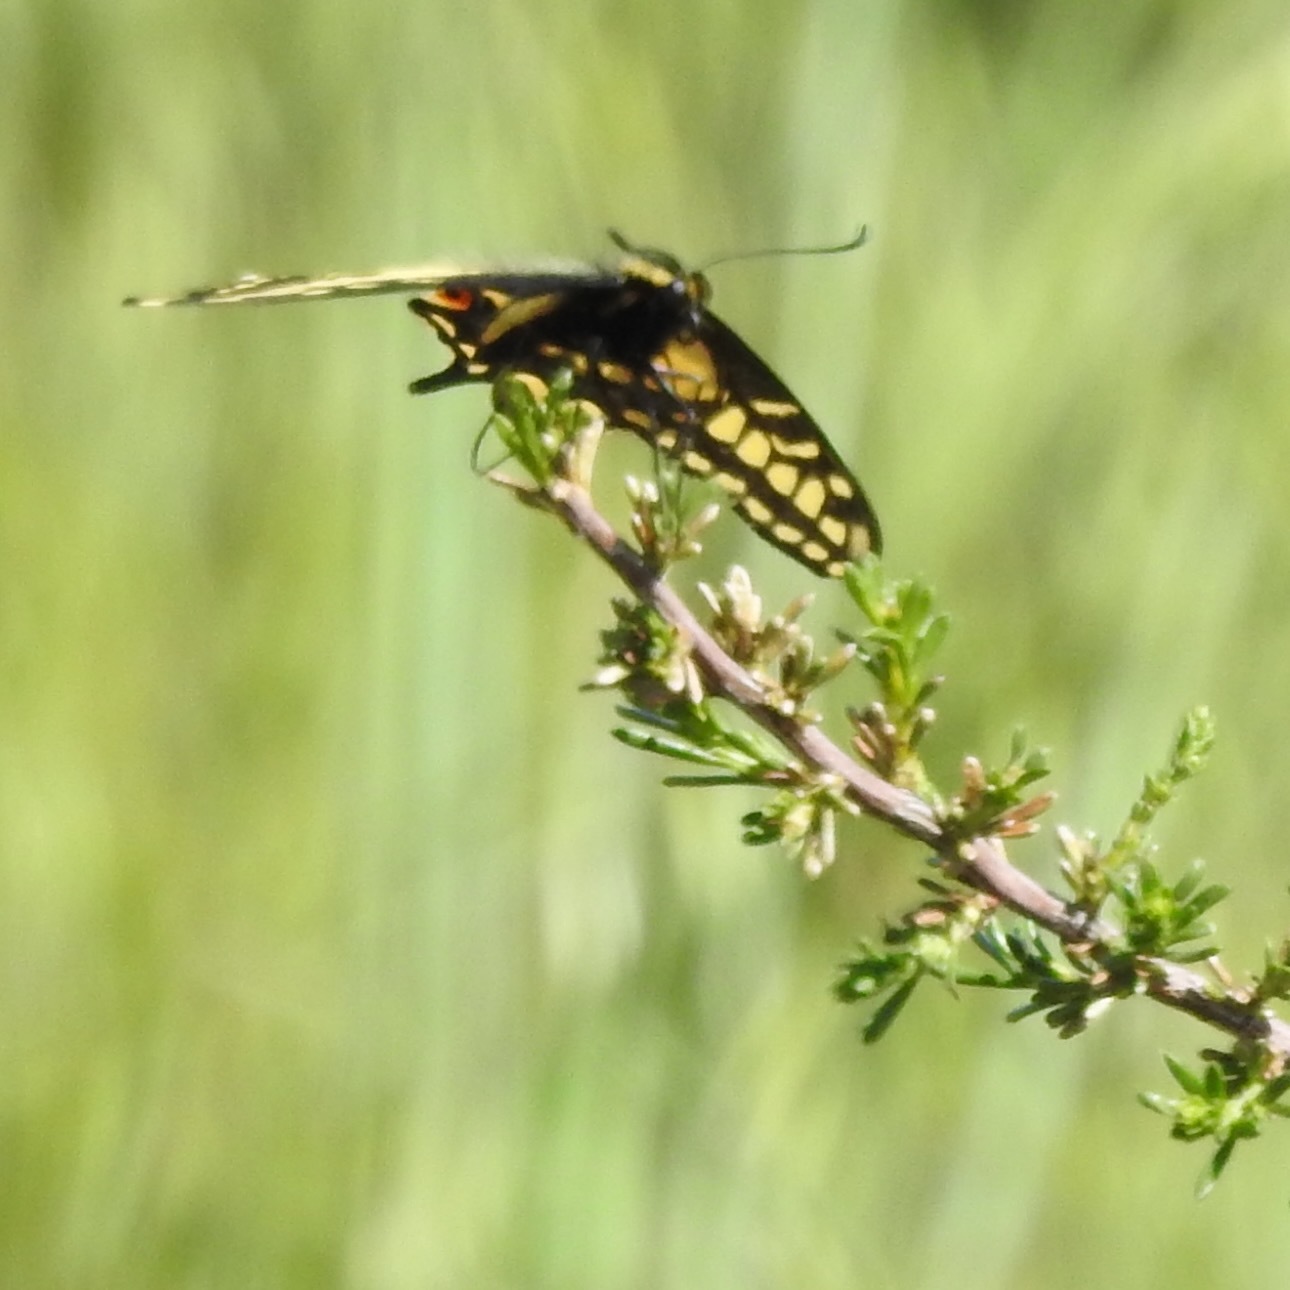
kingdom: Plantae
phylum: Tracheophyta
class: Magnoliopsida
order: Rosales
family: Rosaceae
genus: Adenostoma
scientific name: Adenostoma fasciculatum
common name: Chamise
